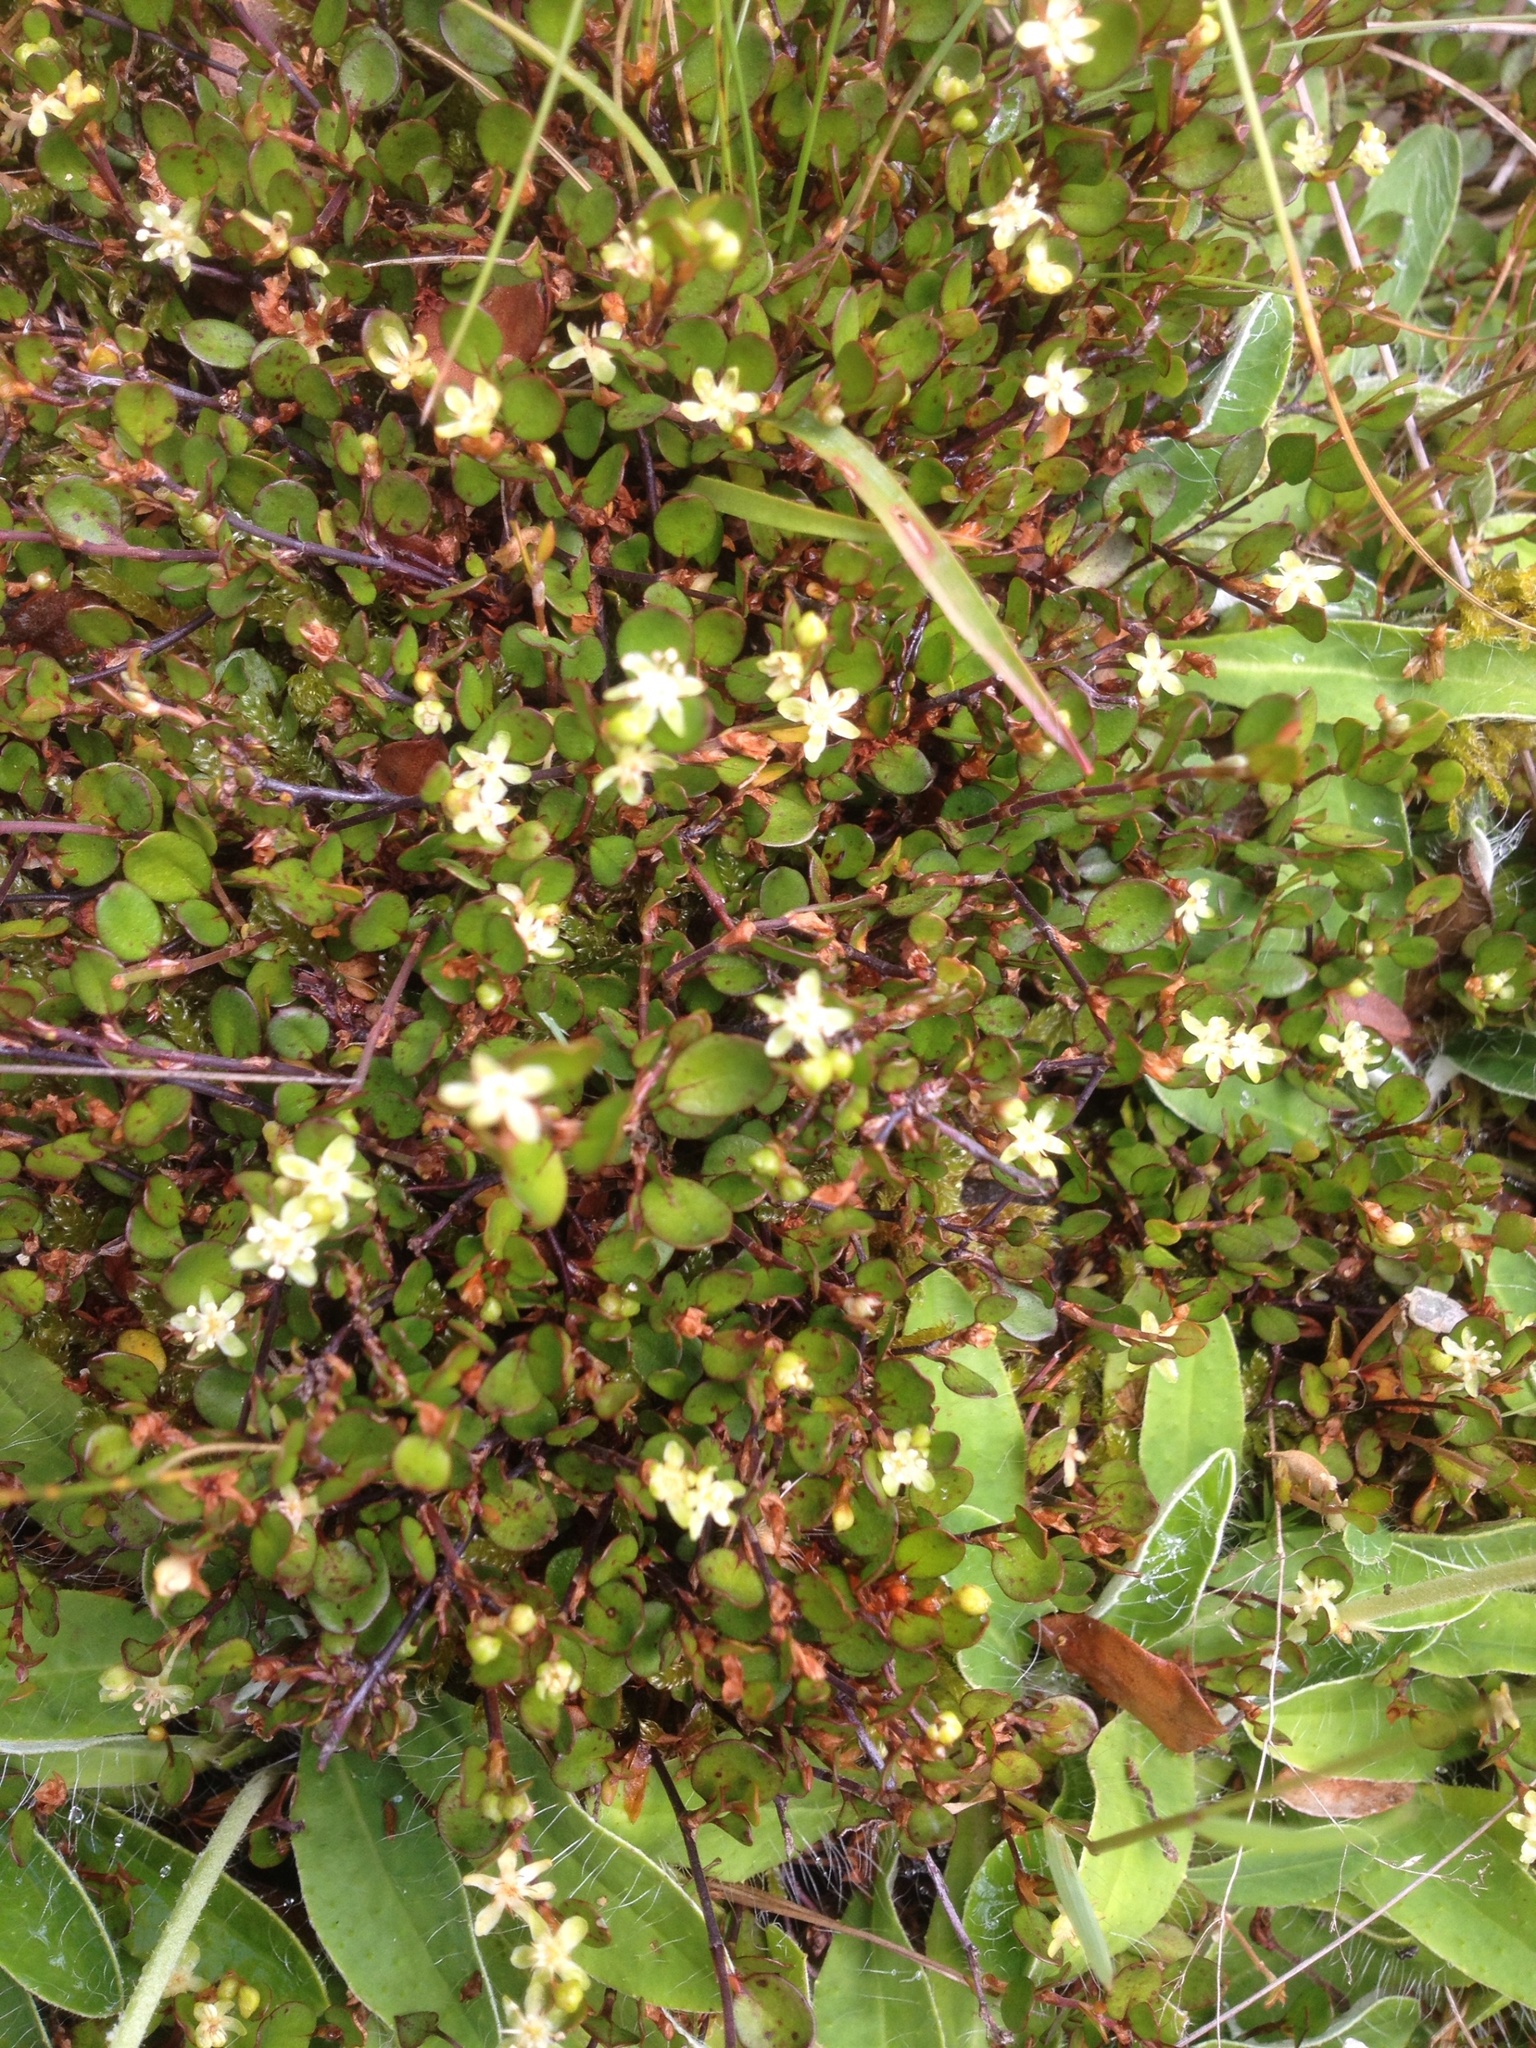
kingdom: Plantae
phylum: Tracheophyta
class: Magnoliopsida
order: Caryophyllales
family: Polygonaceae
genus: Muehlenbeckia
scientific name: Muehlenbeckia axillaris
